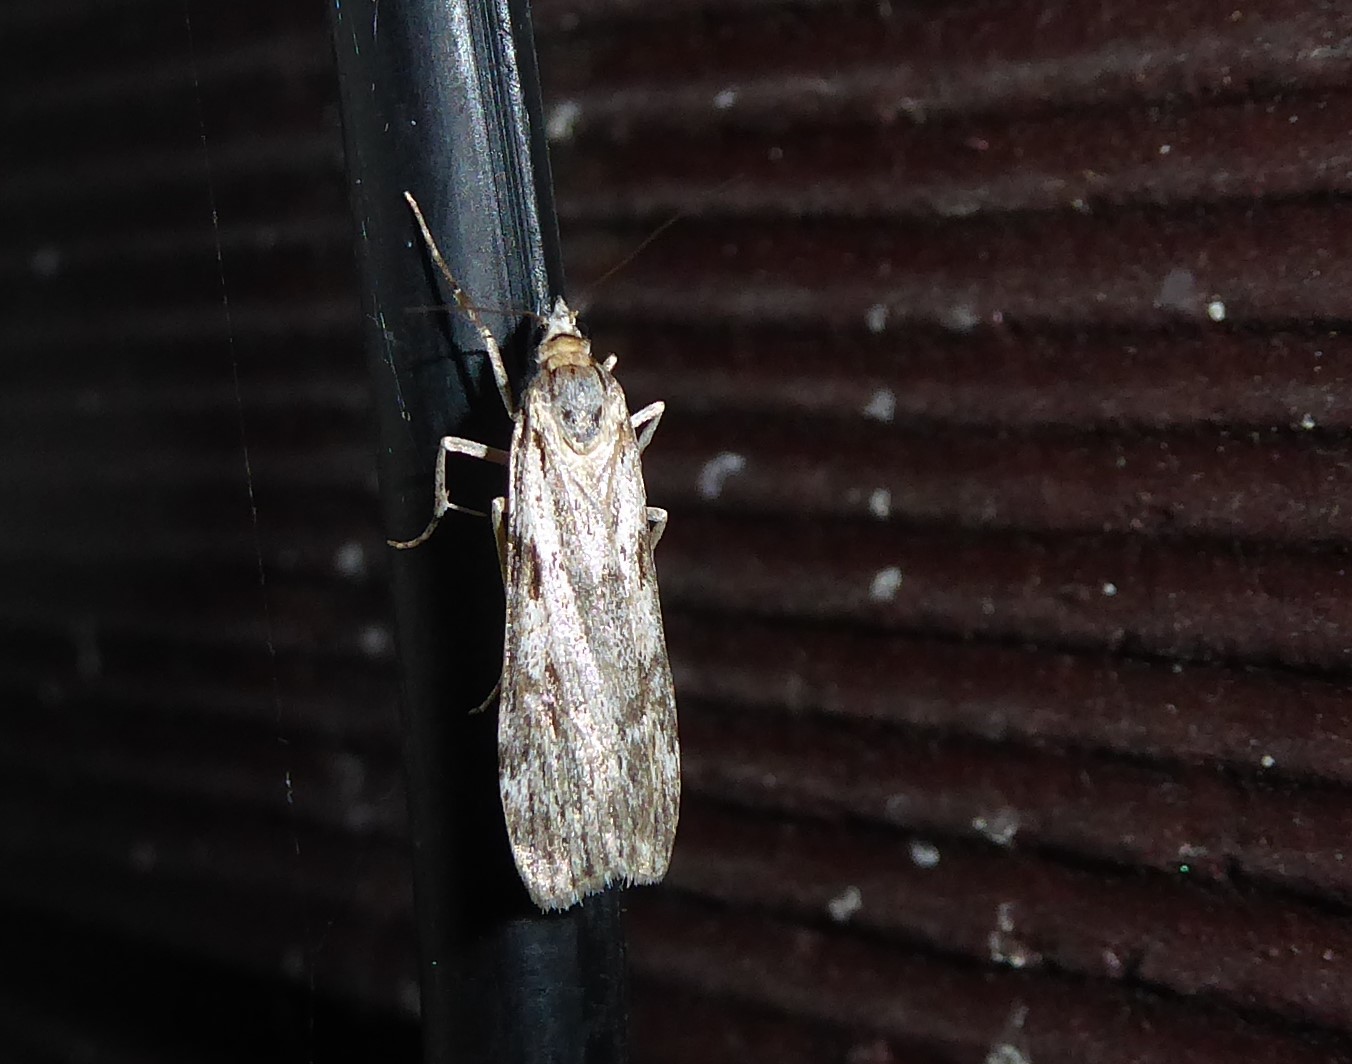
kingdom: Animalia
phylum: Arthropoda
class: Insecta
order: Lepidoptera
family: Crambidae
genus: Scoparia
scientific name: Scoparia halopis
